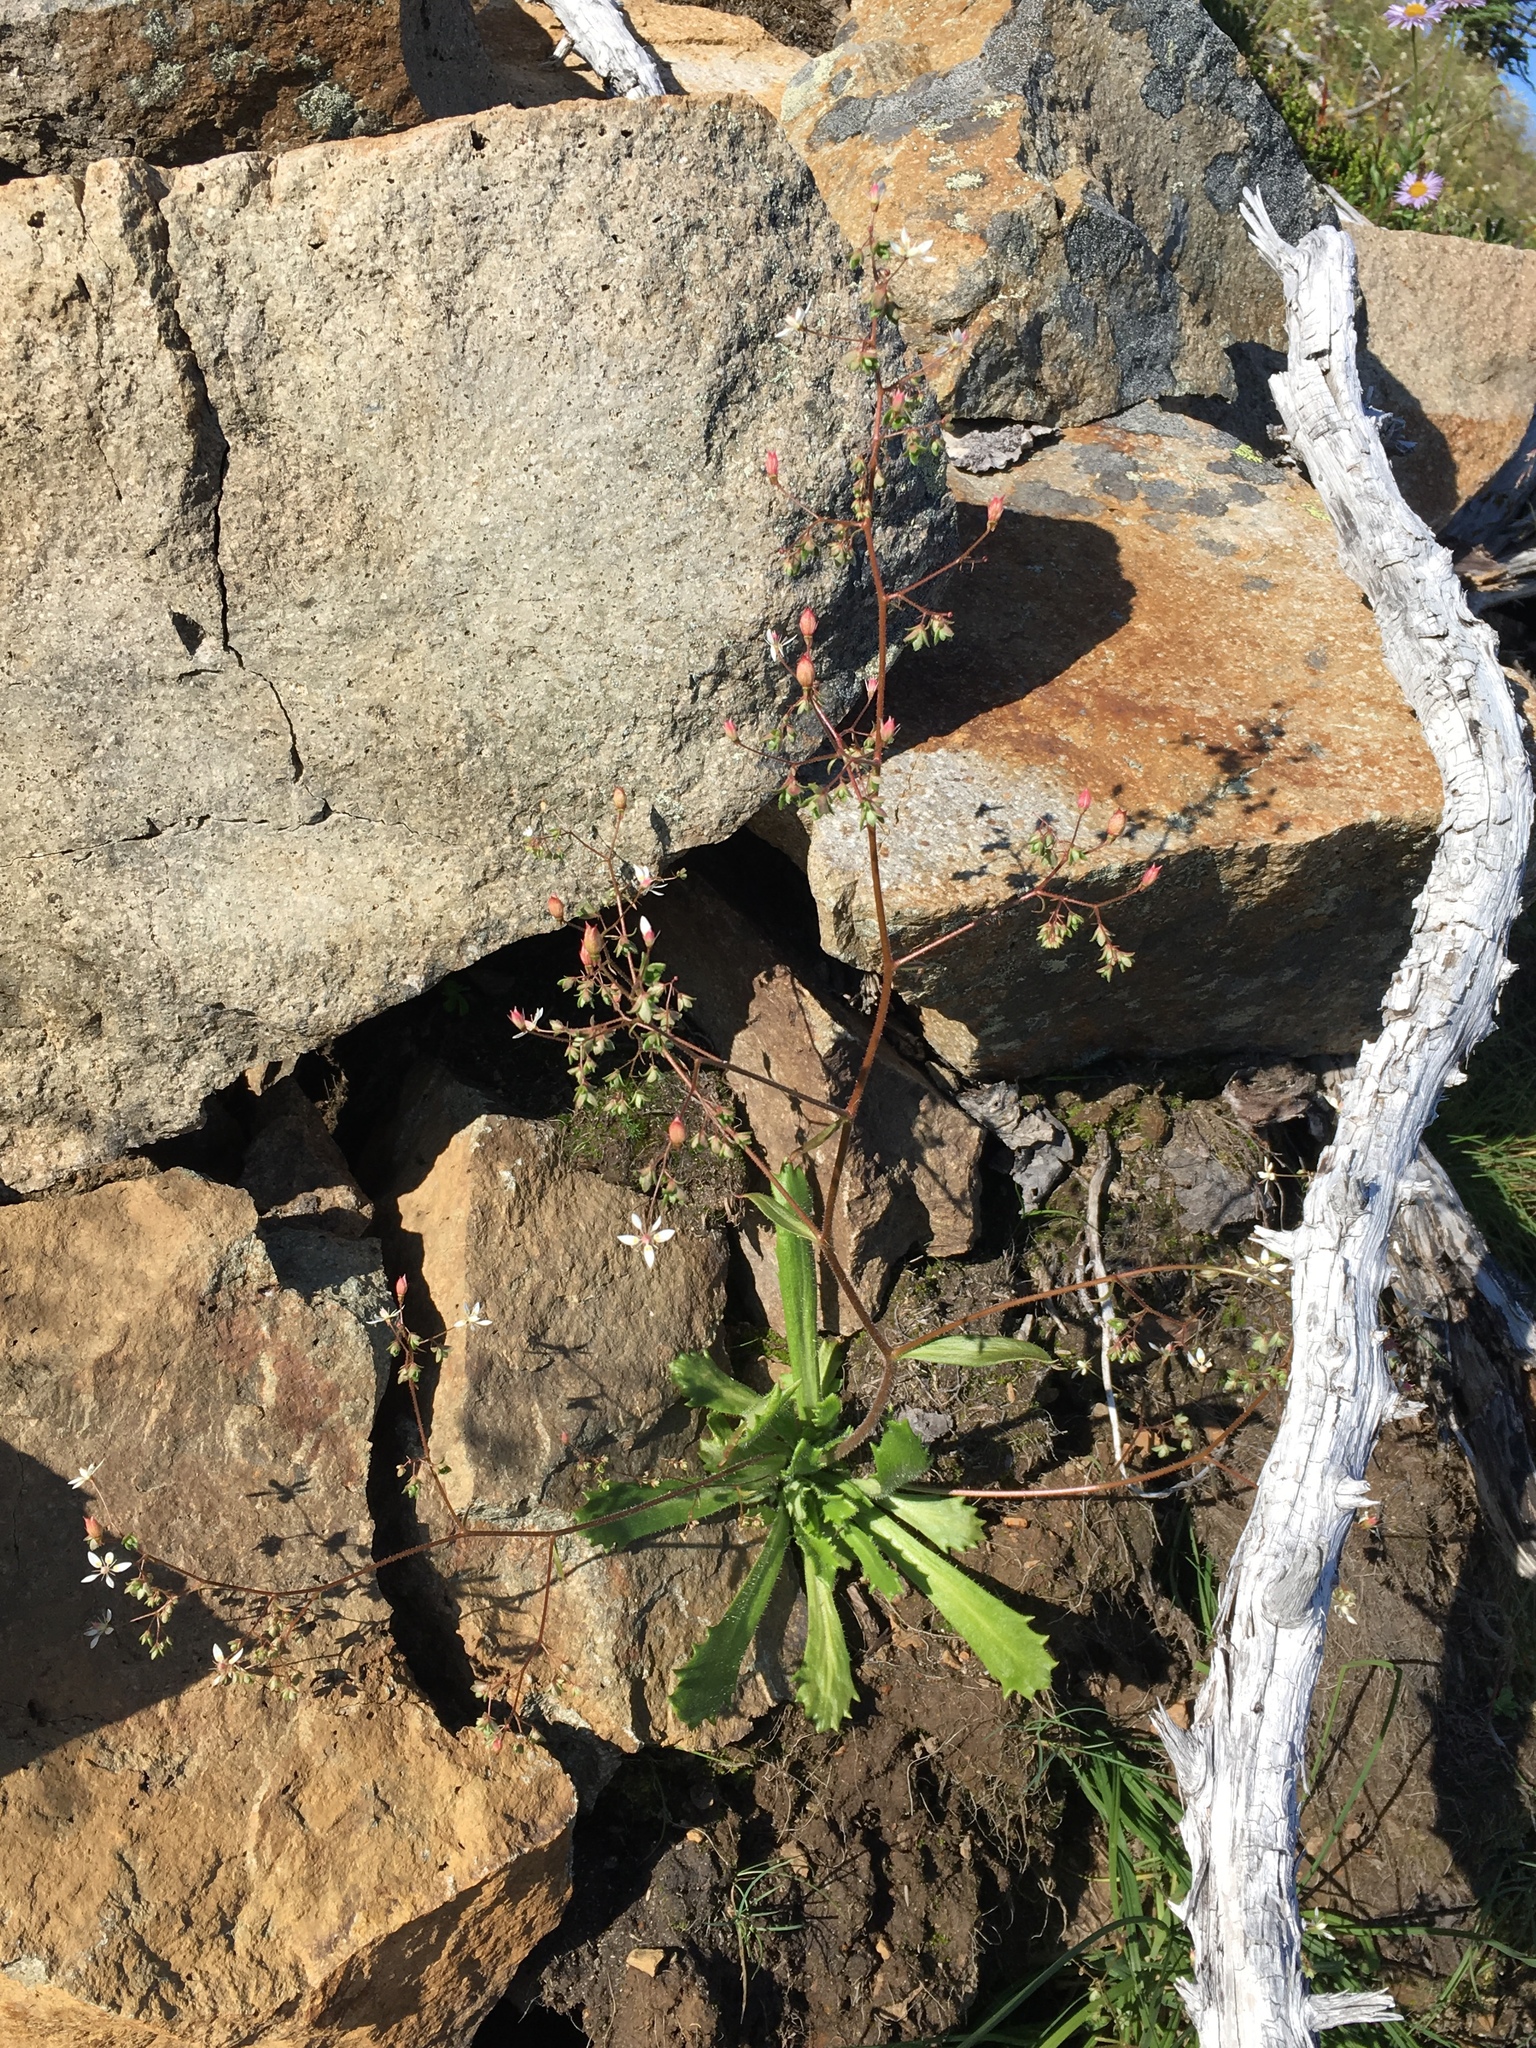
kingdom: Plantae
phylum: Tracheophyta
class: Magnoliopsida
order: Saxifragales
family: Saxifragaceae
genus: Micranthes
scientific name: Micranthes ferruginea
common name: Rusty saxifrage
